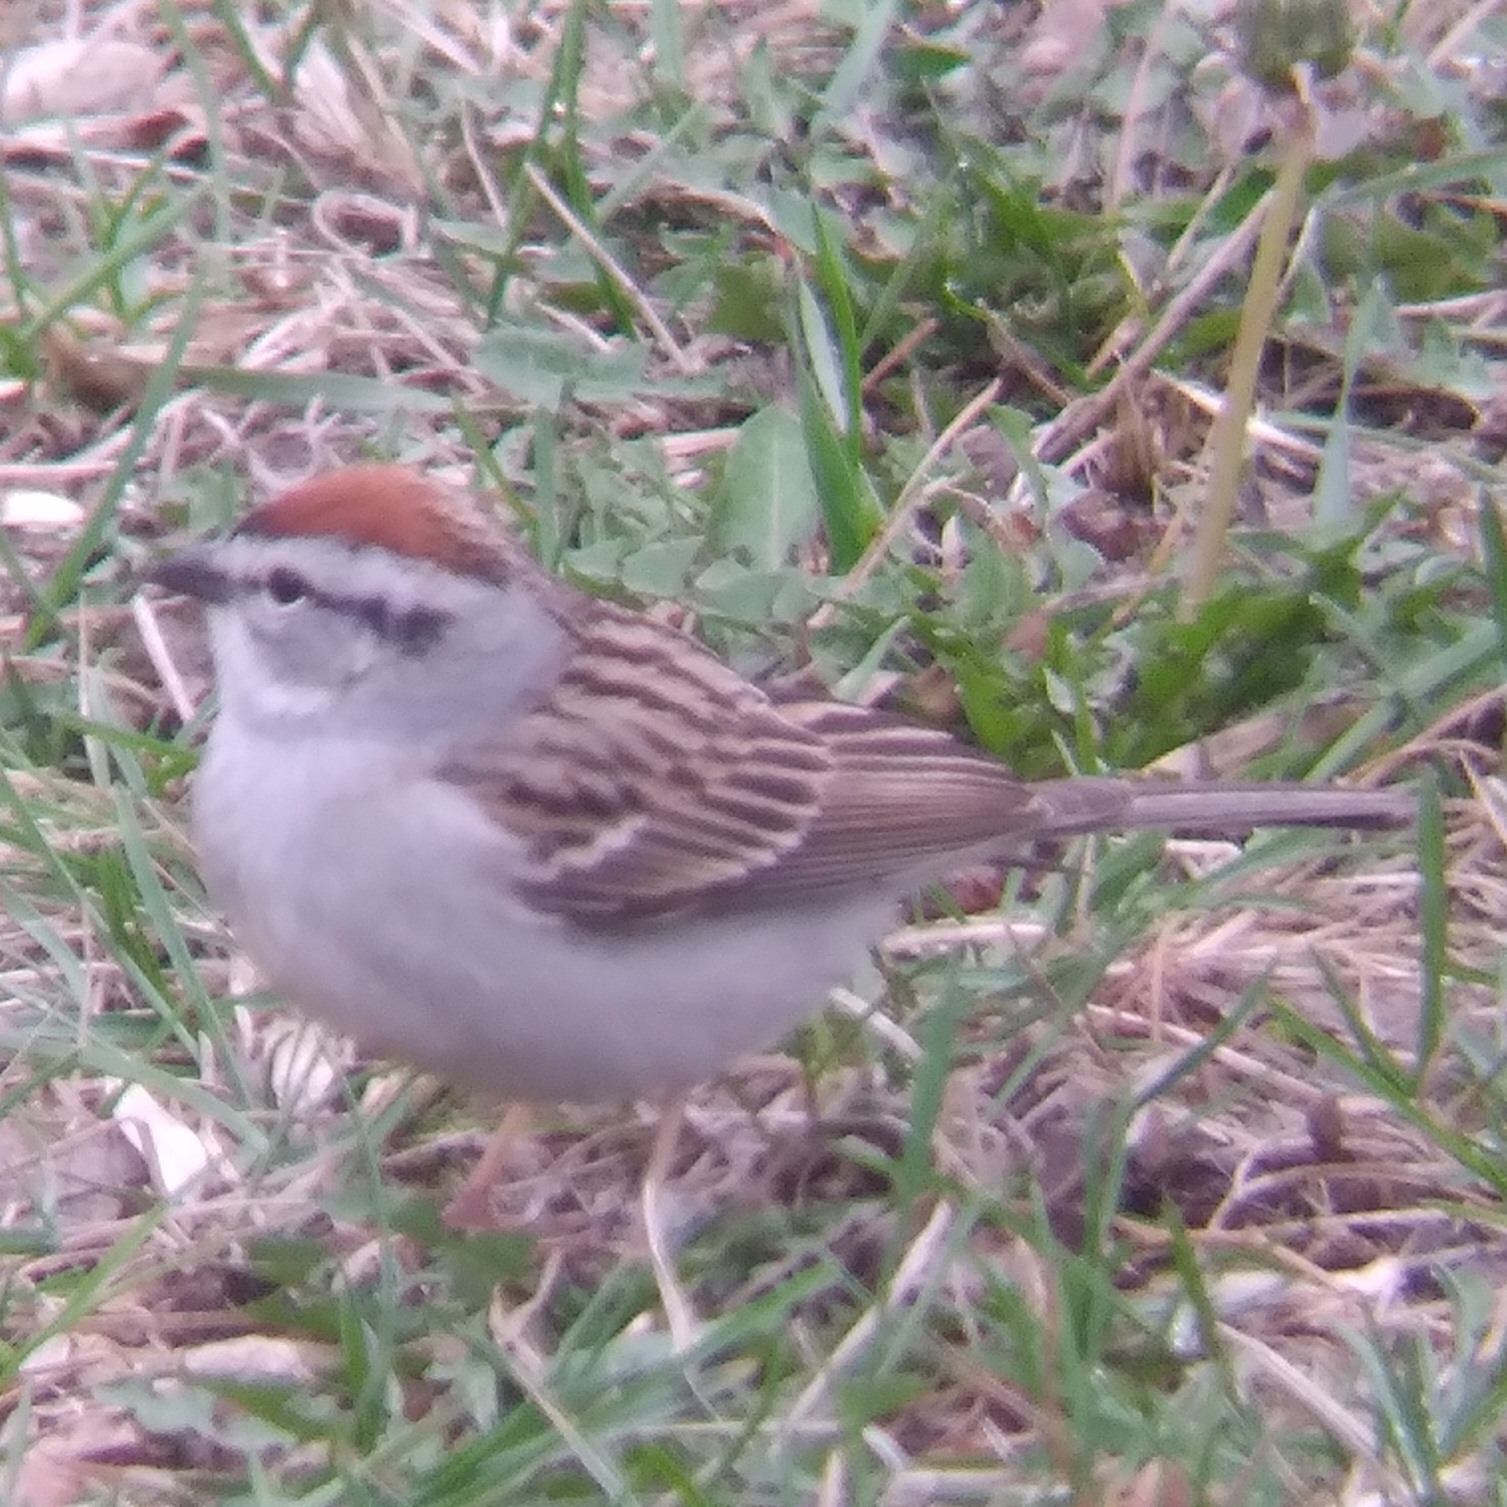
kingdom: Animalia
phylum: Chordata
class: Aves
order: Passeriformes
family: Passerellidae
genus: Spizella
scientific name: Spizella passerina
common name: Chipping sparrow
